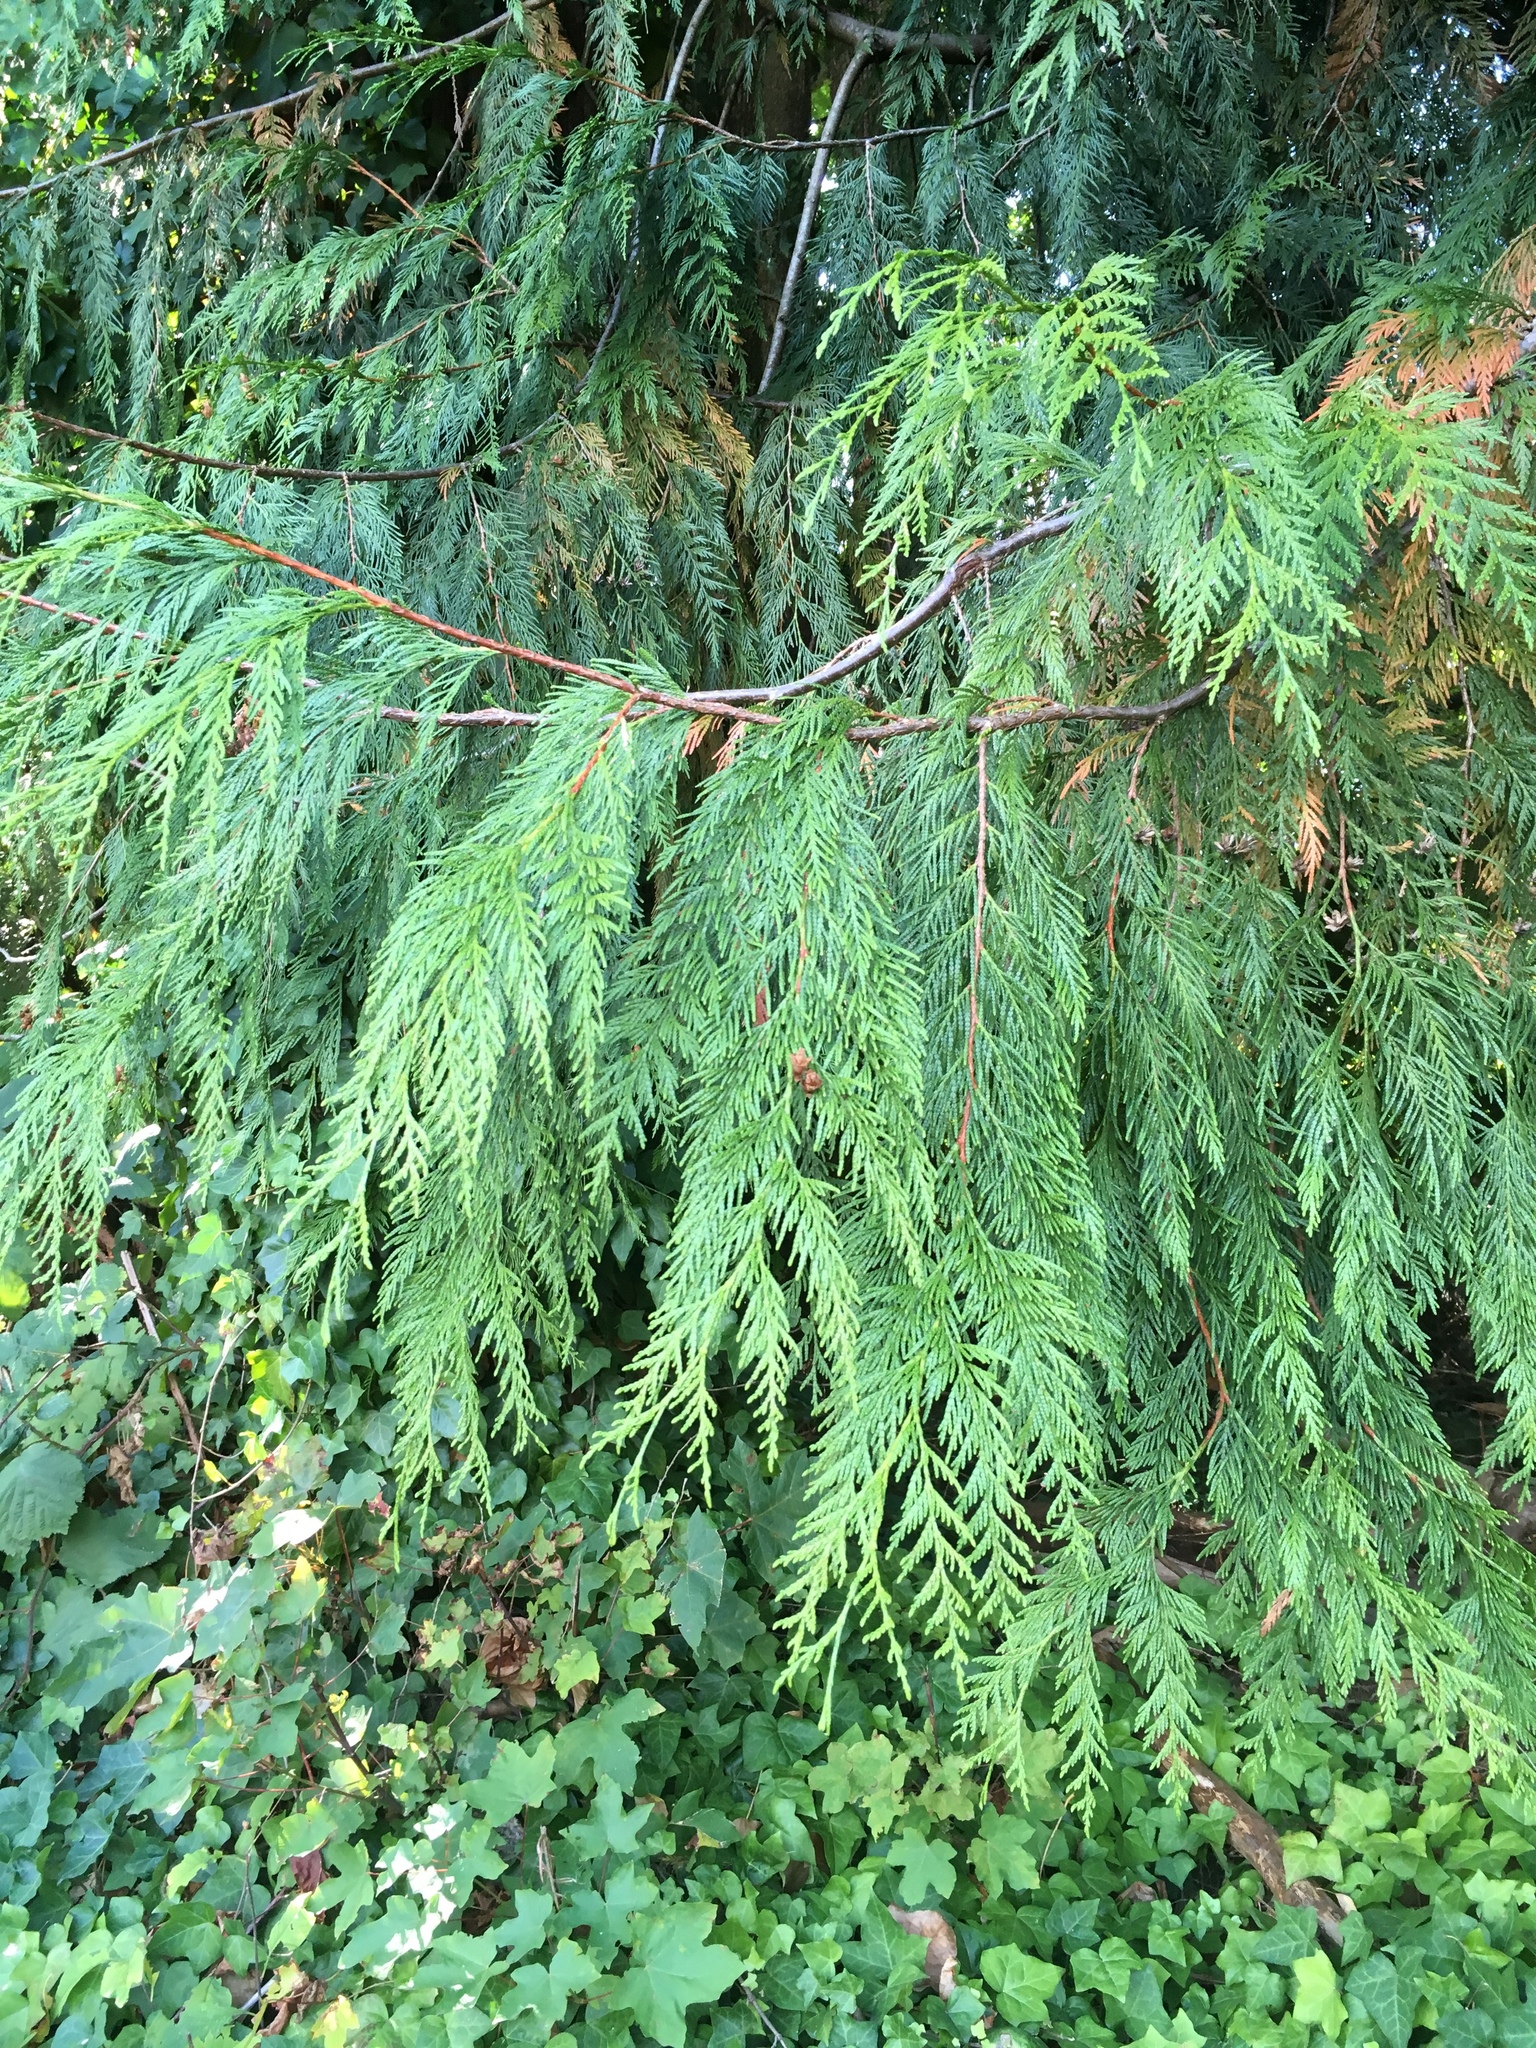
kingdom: Plantae
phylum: Tracheophyta
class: Pinopsida
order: Pinales
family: Cupressaceae
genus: Thuja
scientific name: Thuja plicata
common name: Western red-cedar
